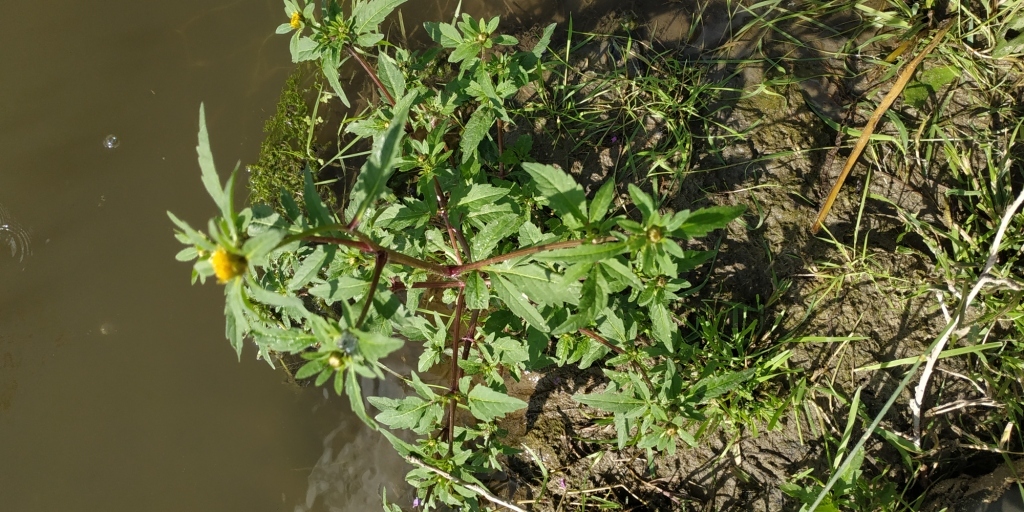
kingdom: Plantae
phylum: Tracheophyta
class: Magnoliopsida
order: Asterales
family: Asteraceae
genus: Bidens
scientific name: Bidens tripartita
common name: Trifid bur-marigold
